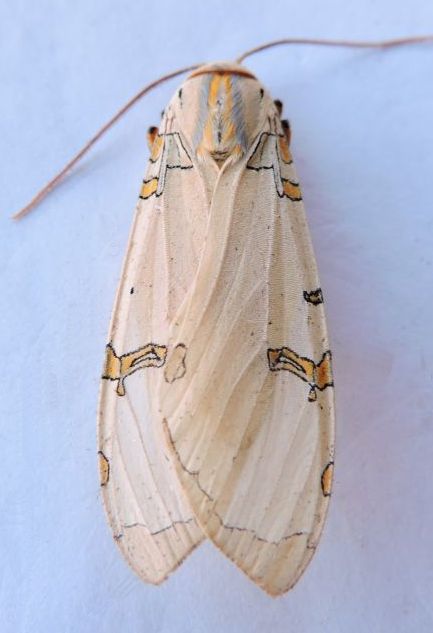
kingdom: Animalia
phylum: Arthropoda
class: Insecta
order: Lepidoptera
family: Erebidae
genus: Halysidota
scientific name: Halysidota davisii
